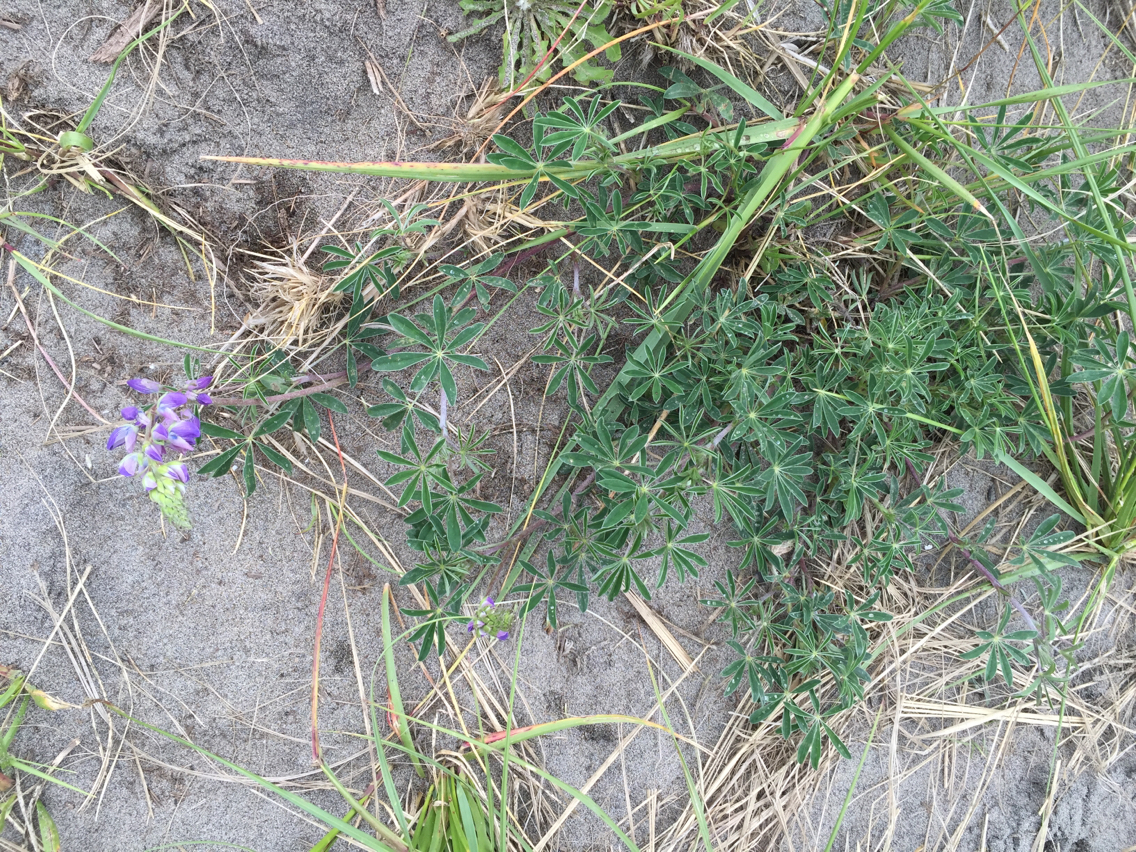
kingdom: Plantae
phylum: Tracheophyta
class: Magnoliopsida
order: Fabales
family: Fabaceae
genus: Lupinus
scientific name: Lupinus littoralis
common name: Seashore lupine
